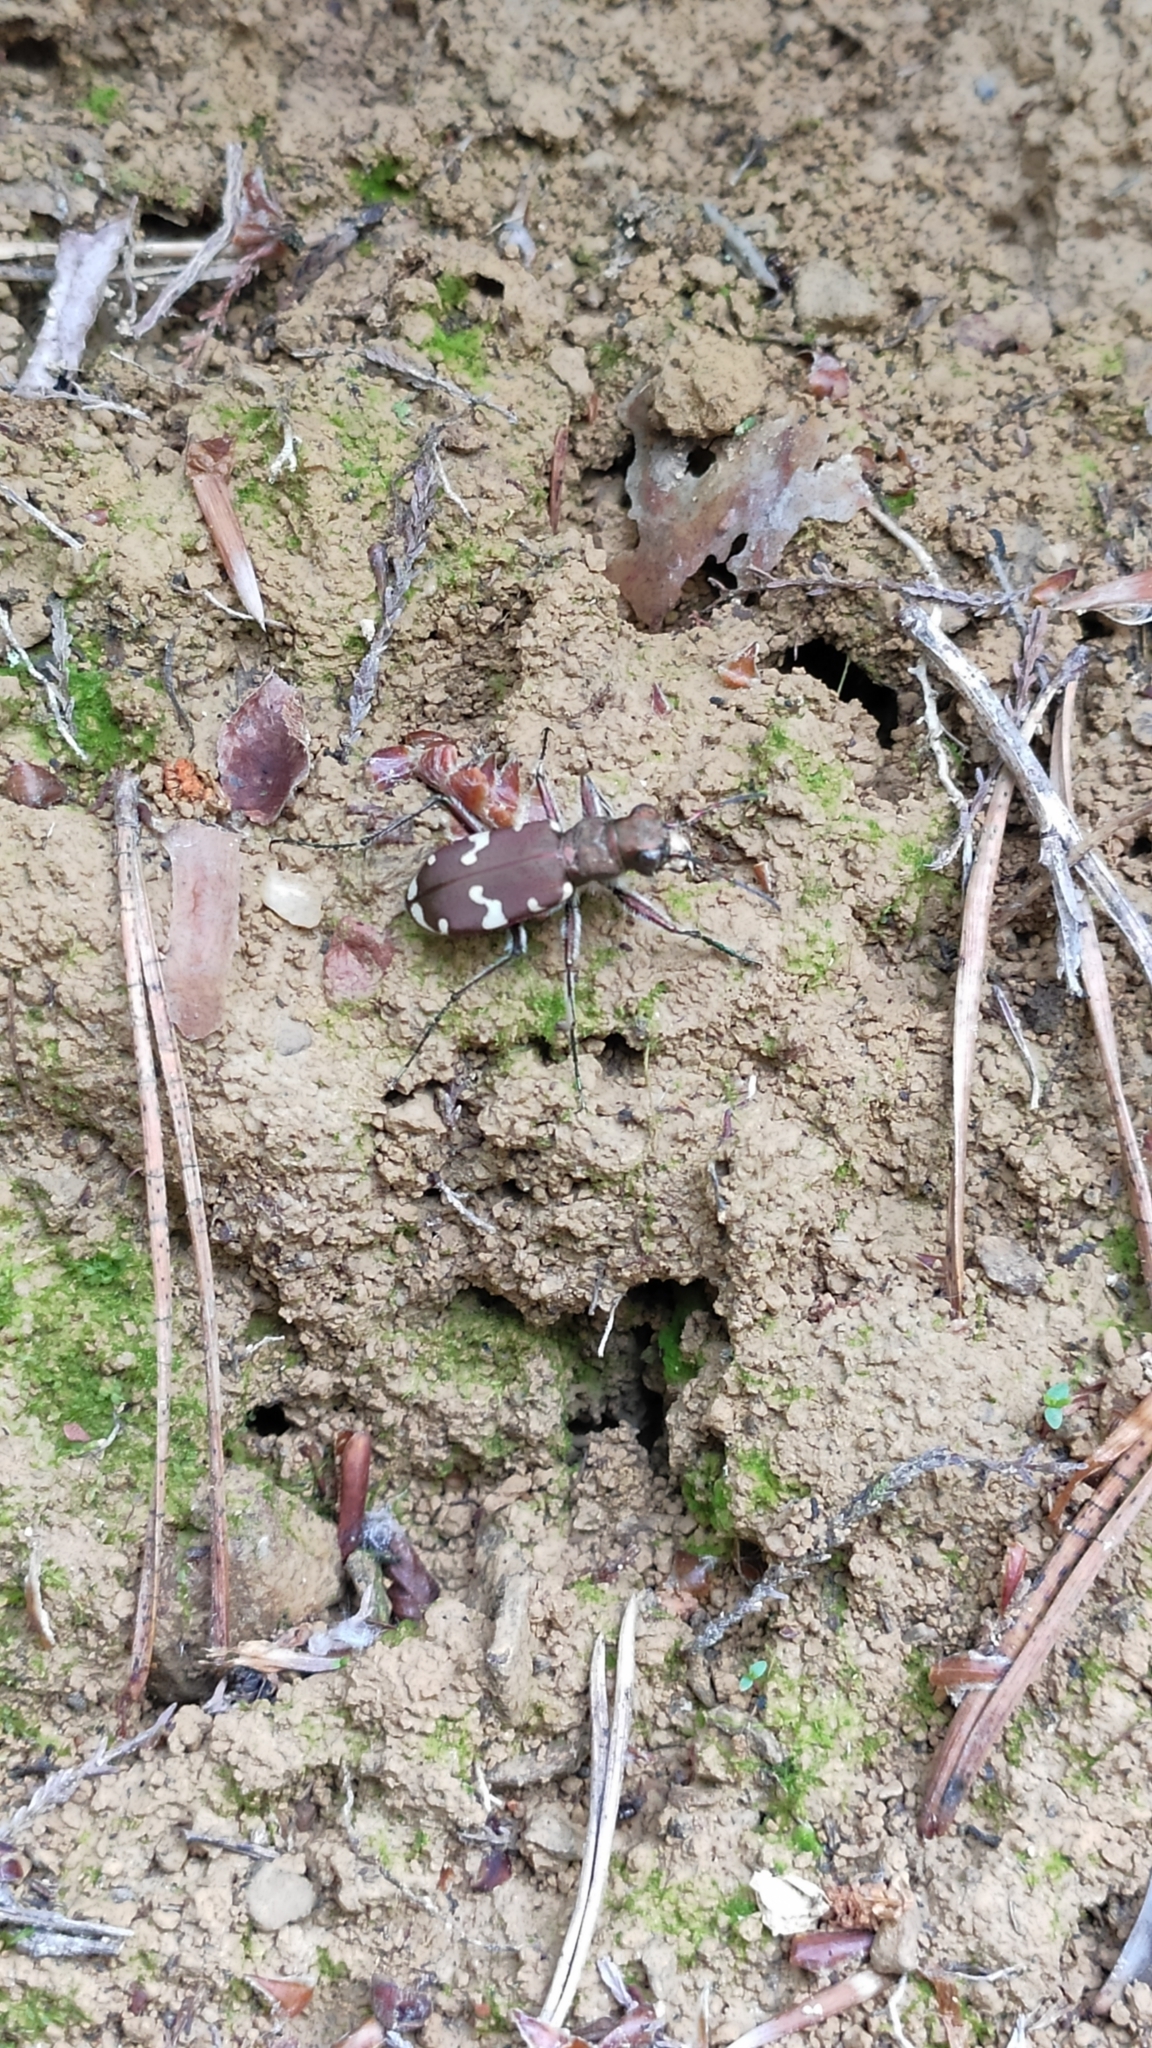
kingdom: Animalia
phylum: Arthropoda
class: Insecta
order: Coleoptera
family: Carabidae
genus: Cicindela
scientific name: Cicindela sylvicola
